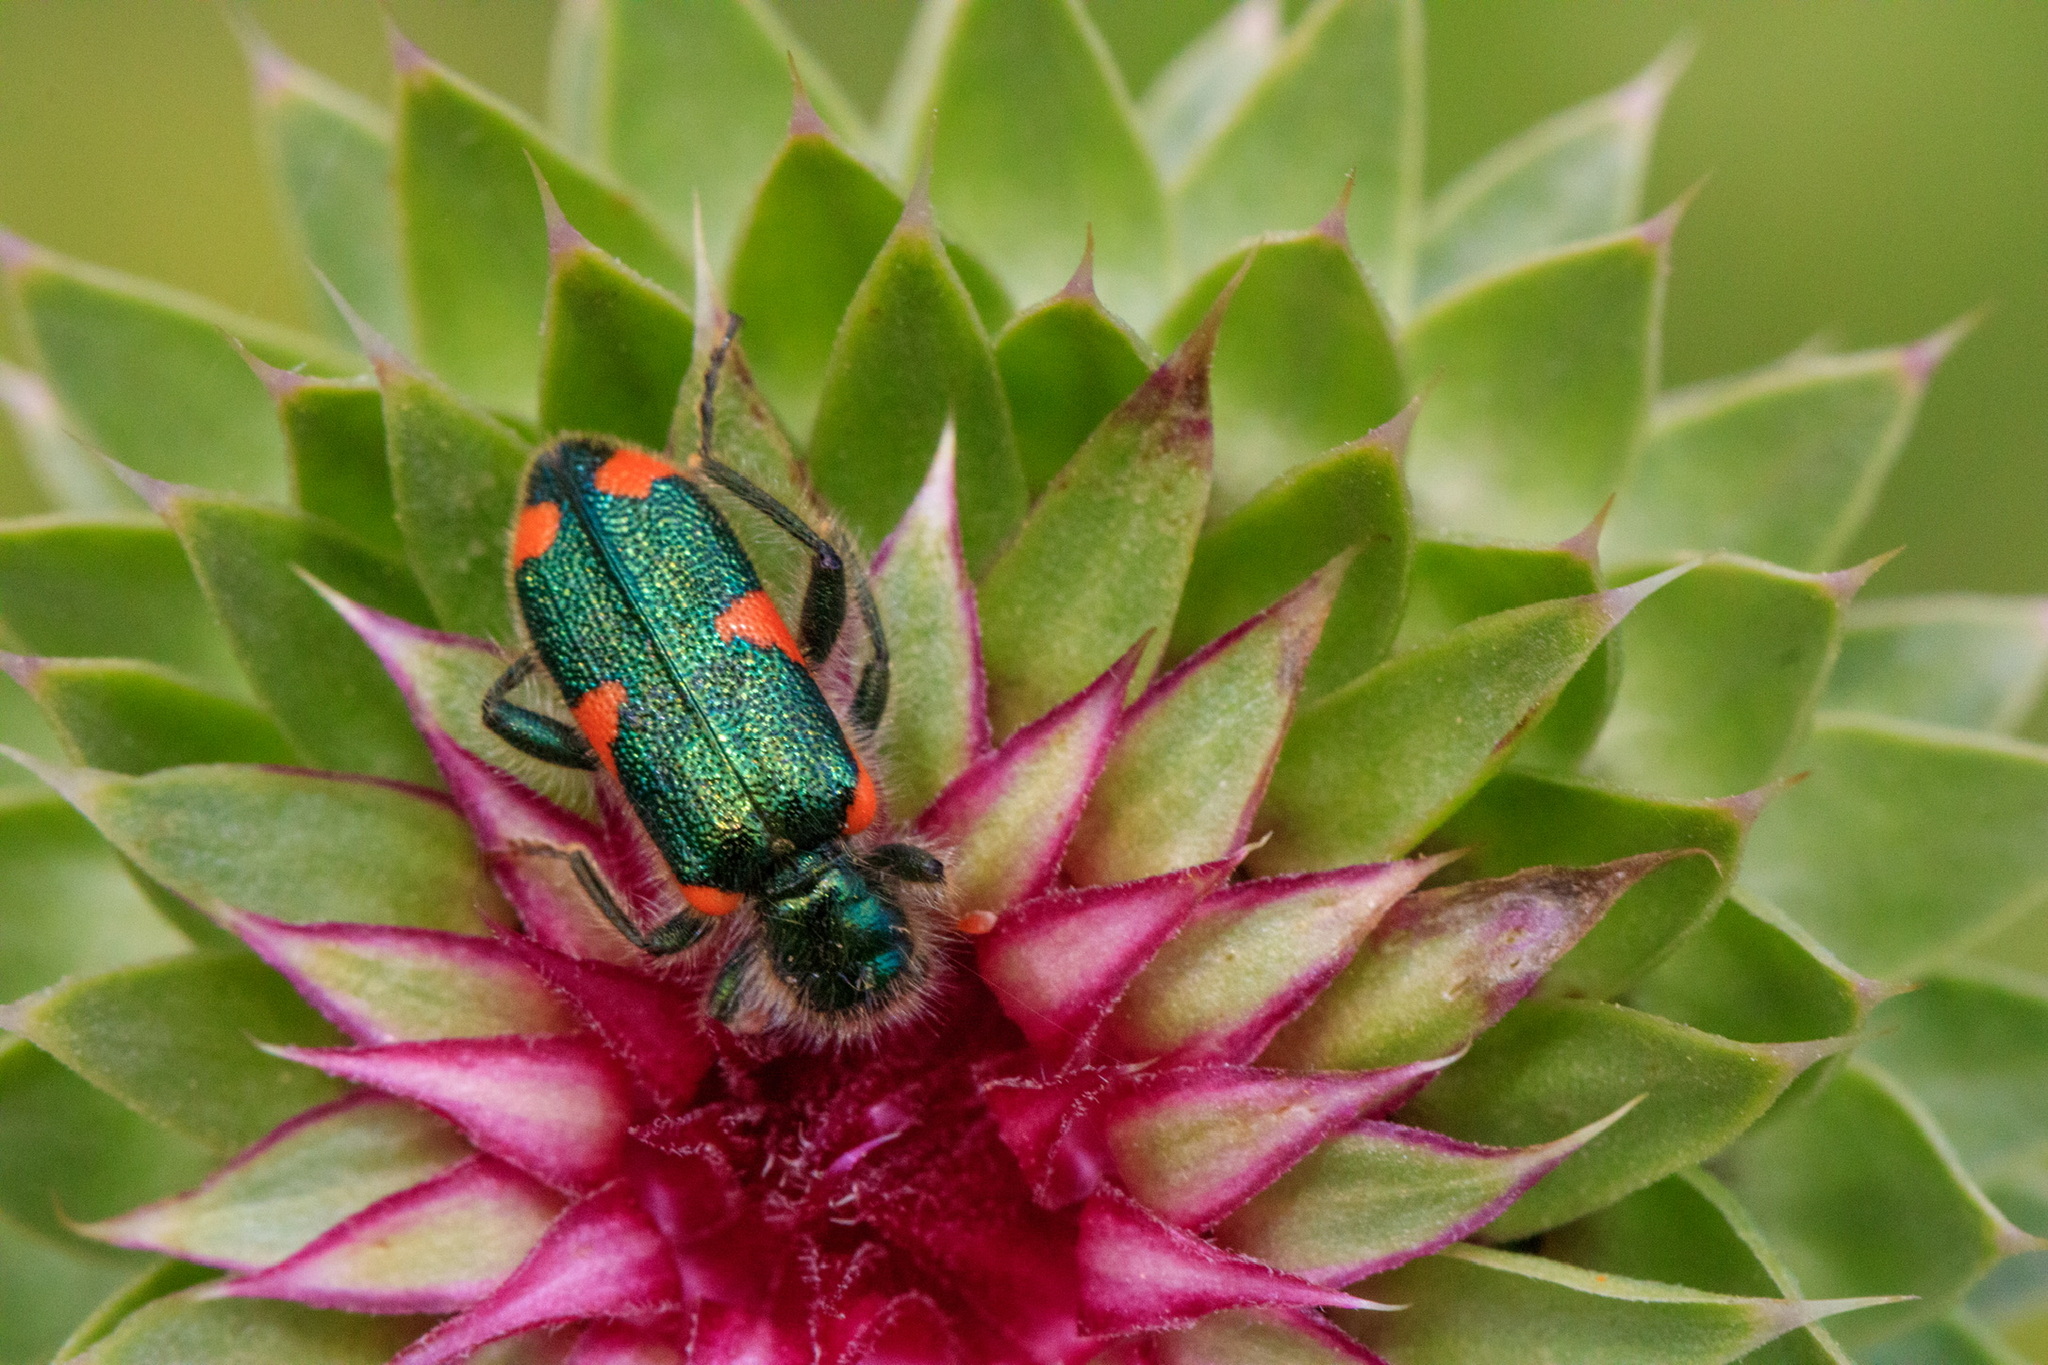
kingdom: Animalia
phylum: Arthropoda
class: Insecta
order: Coleoptera
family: Cleridae
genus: Trichodes
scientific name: Trichodes axillaris
